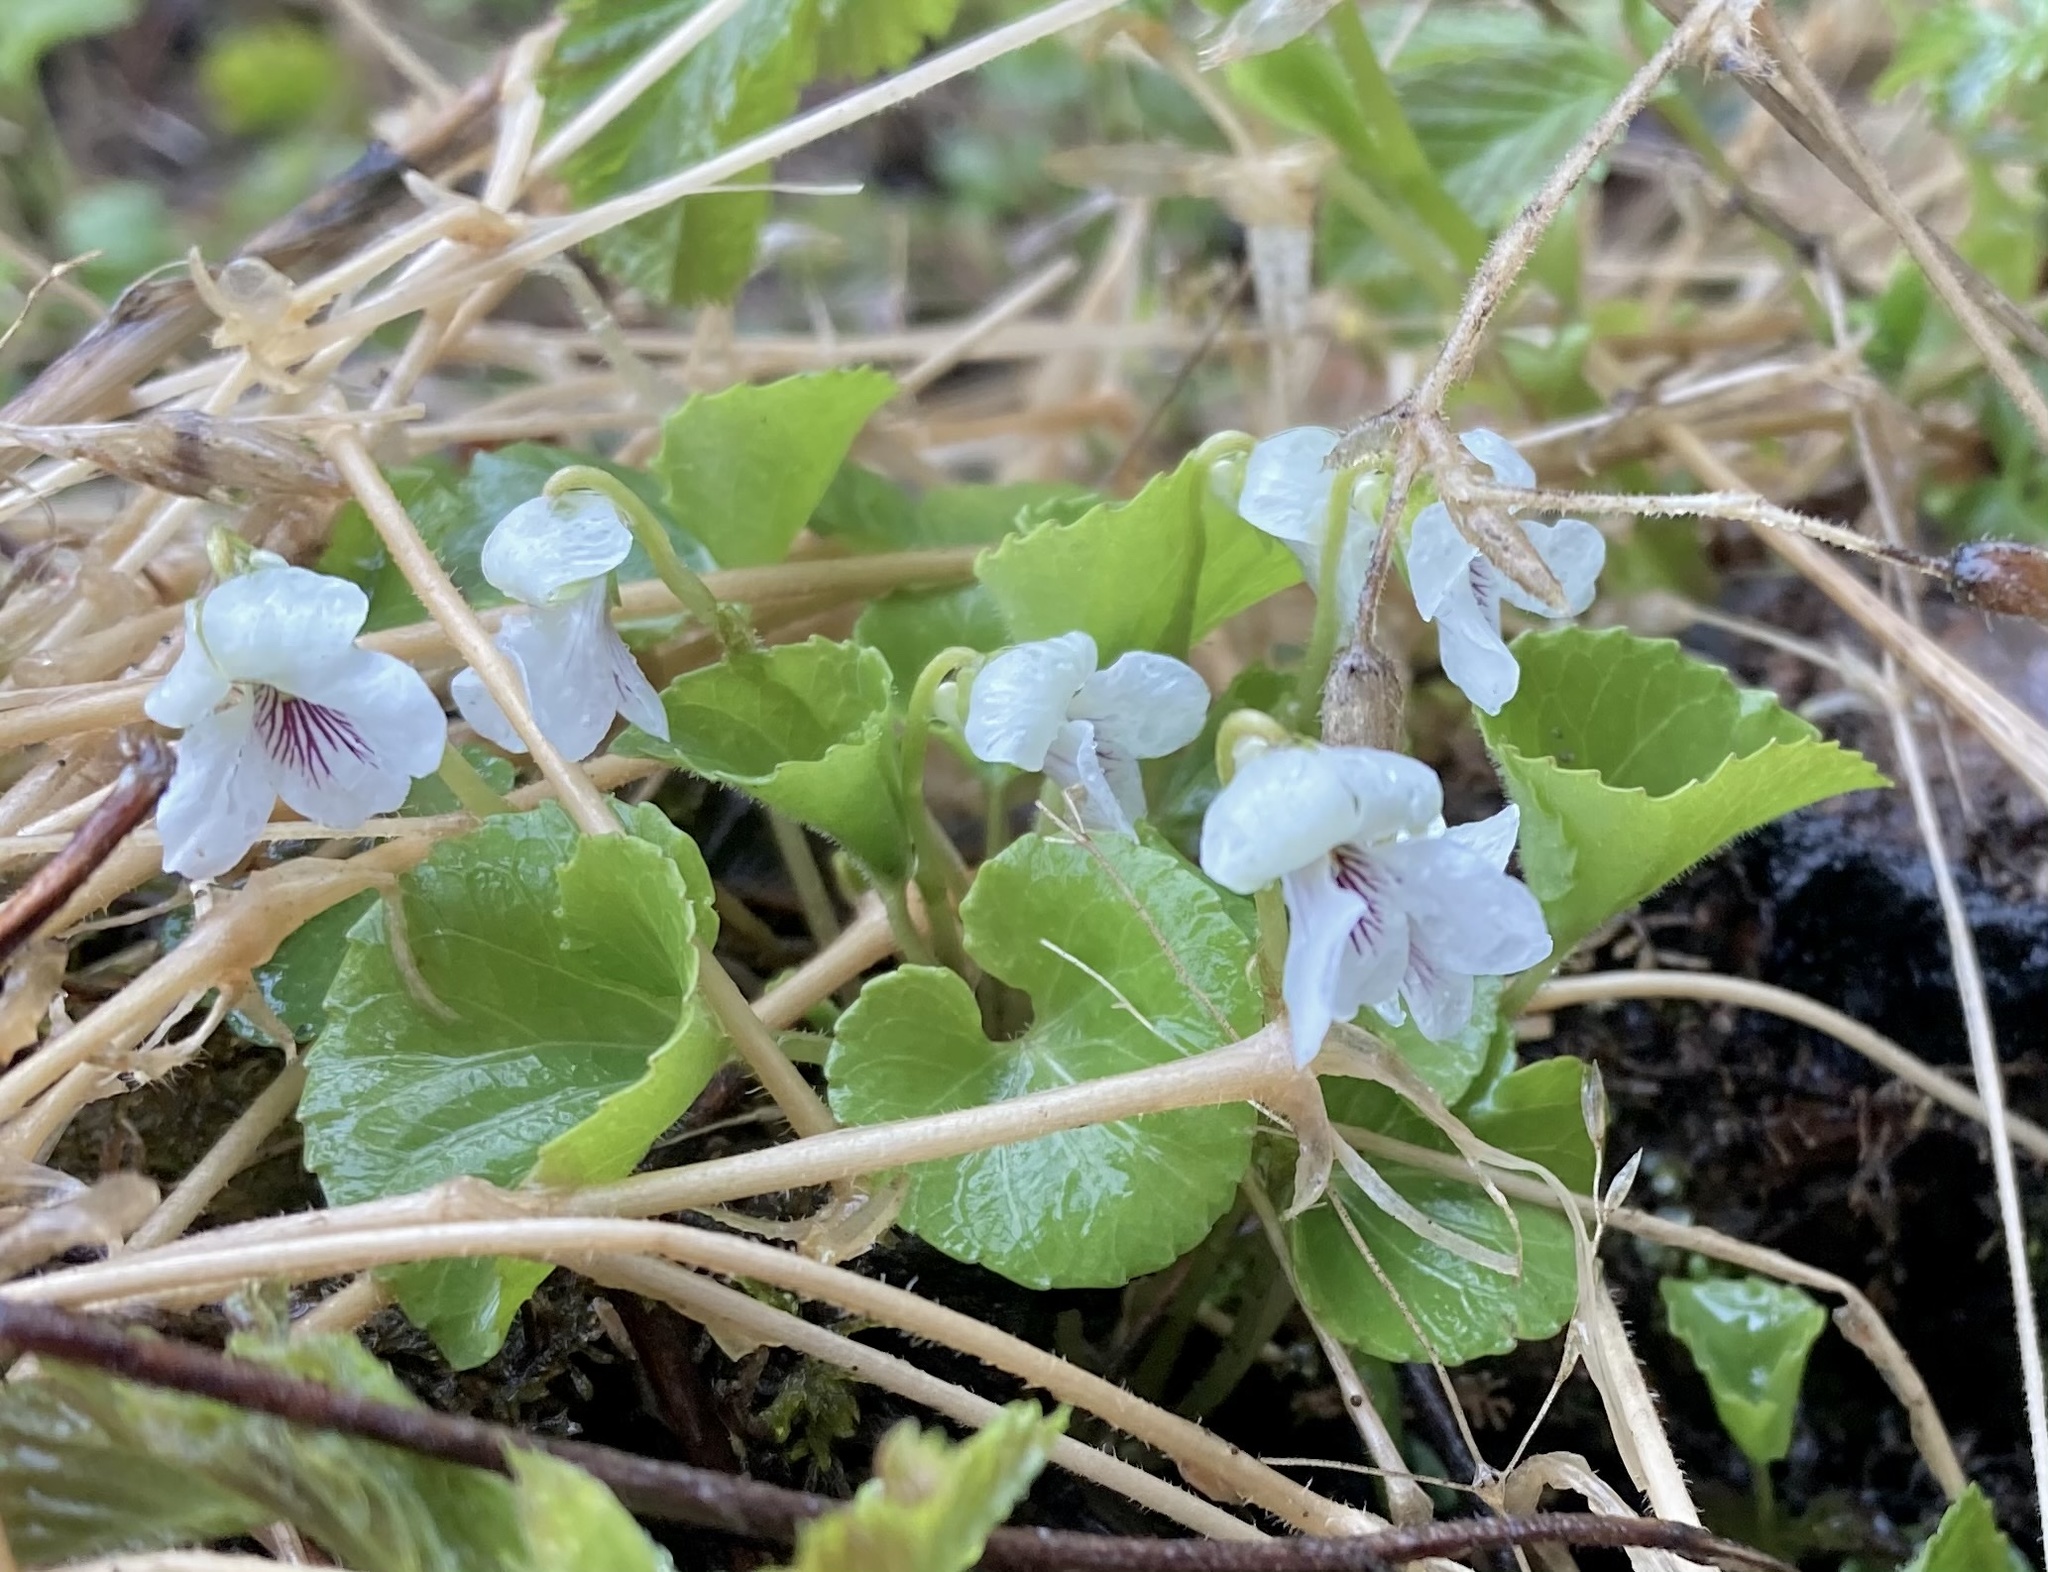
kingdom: Plantae
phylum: Tracheophyta
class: Magnoliopsida
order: Malpighiales
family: Violaceae
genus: Viola
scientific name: Viola renifolia
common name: Kidney-leaf violet
